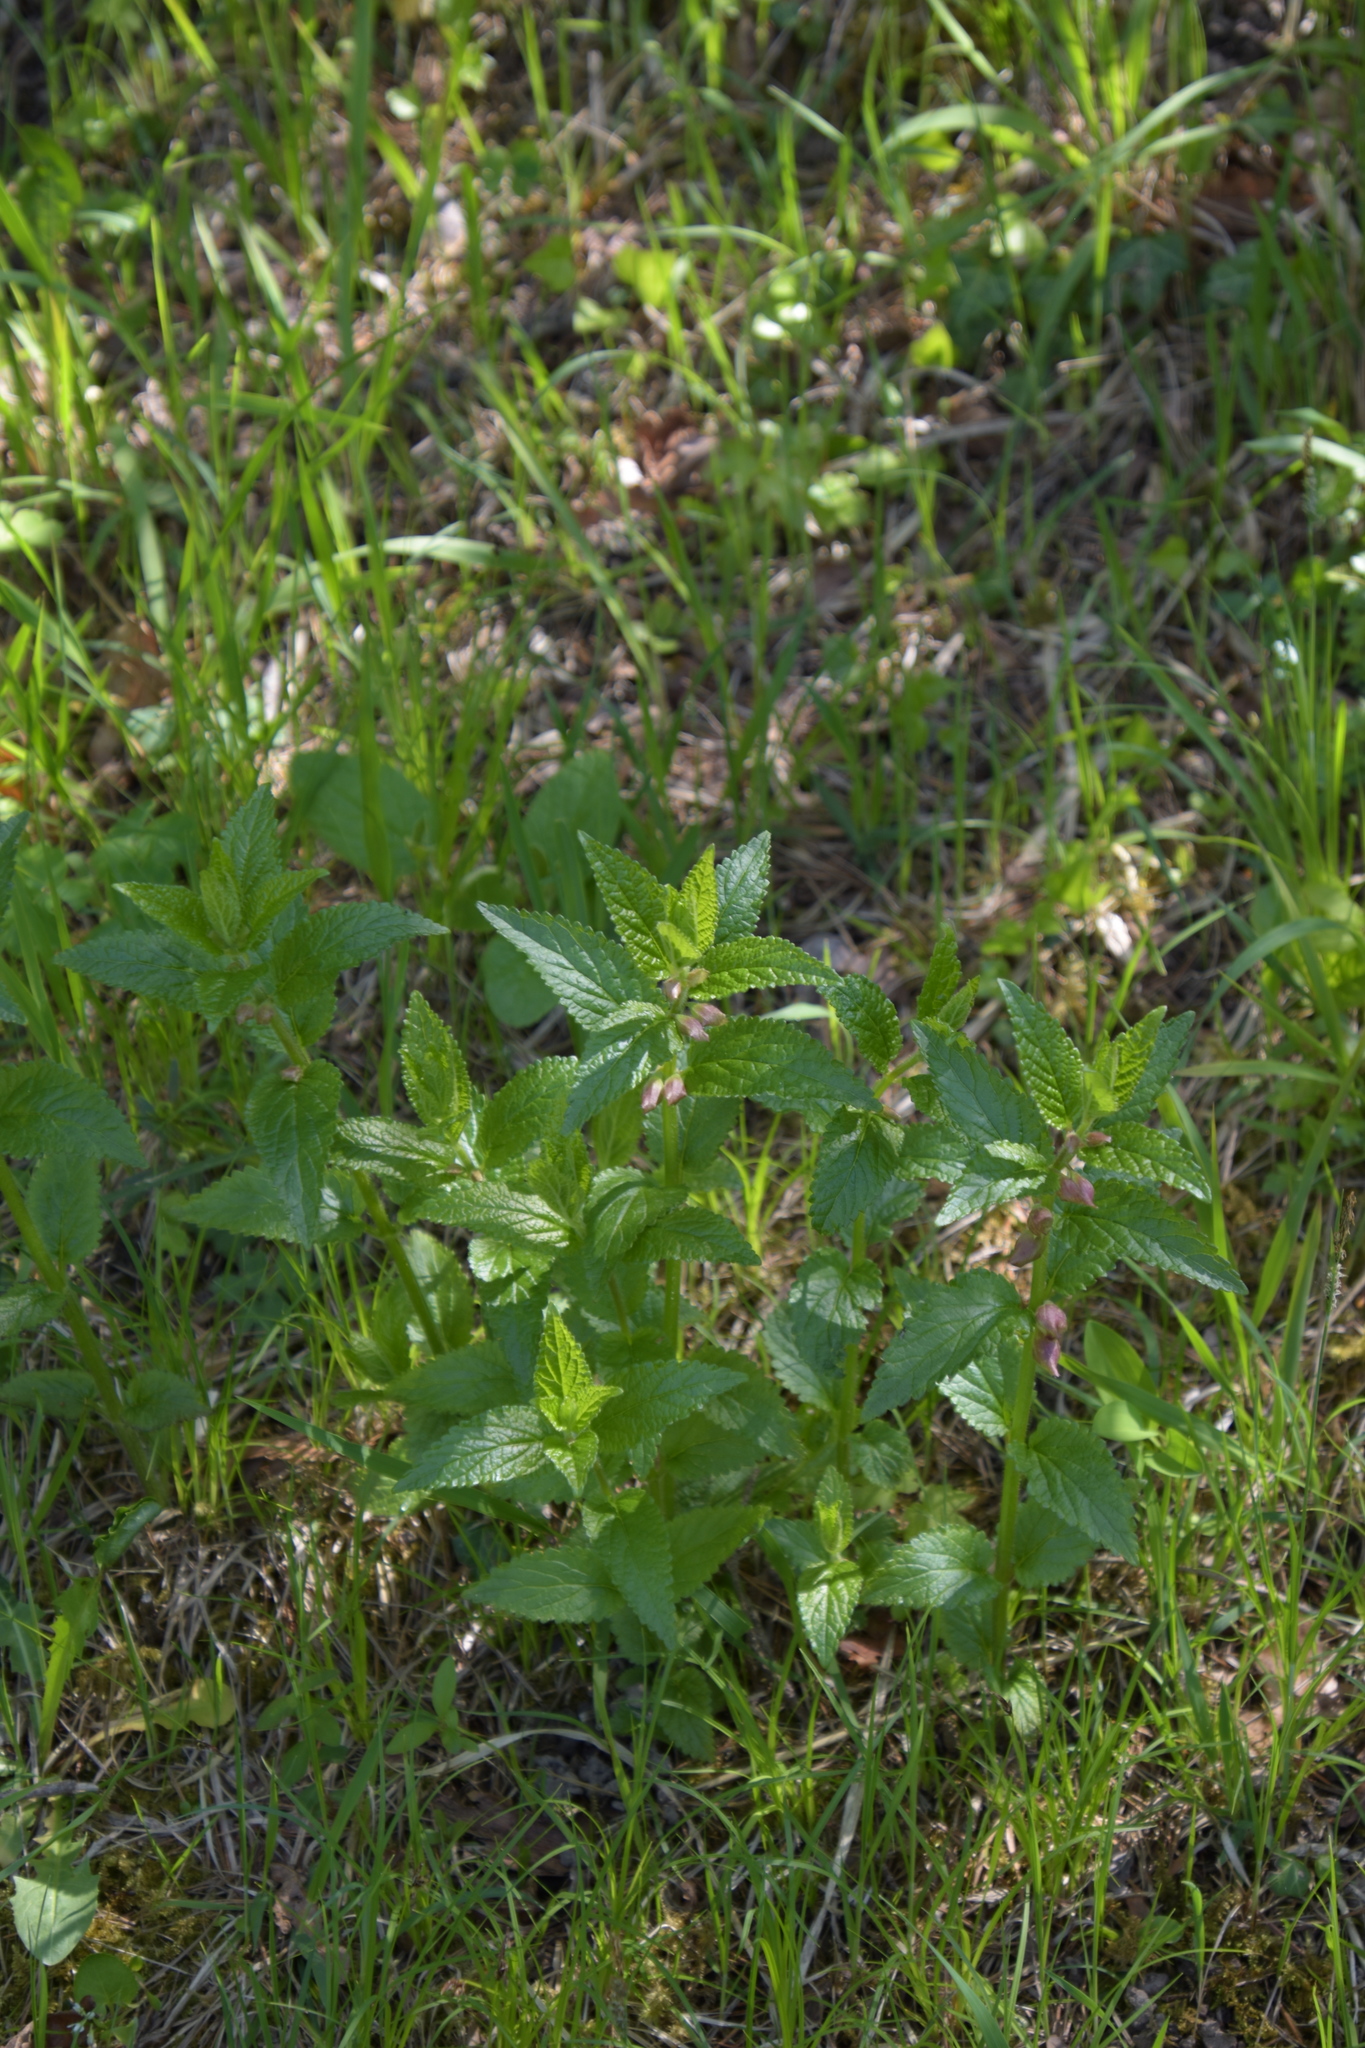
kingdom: Plantae
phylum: Tracheophyta
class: Magnoliopsida
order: Lamiales
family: Lamiaceae
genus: Melittis
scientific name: Melittis melissophyllum
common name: Bastard balm
